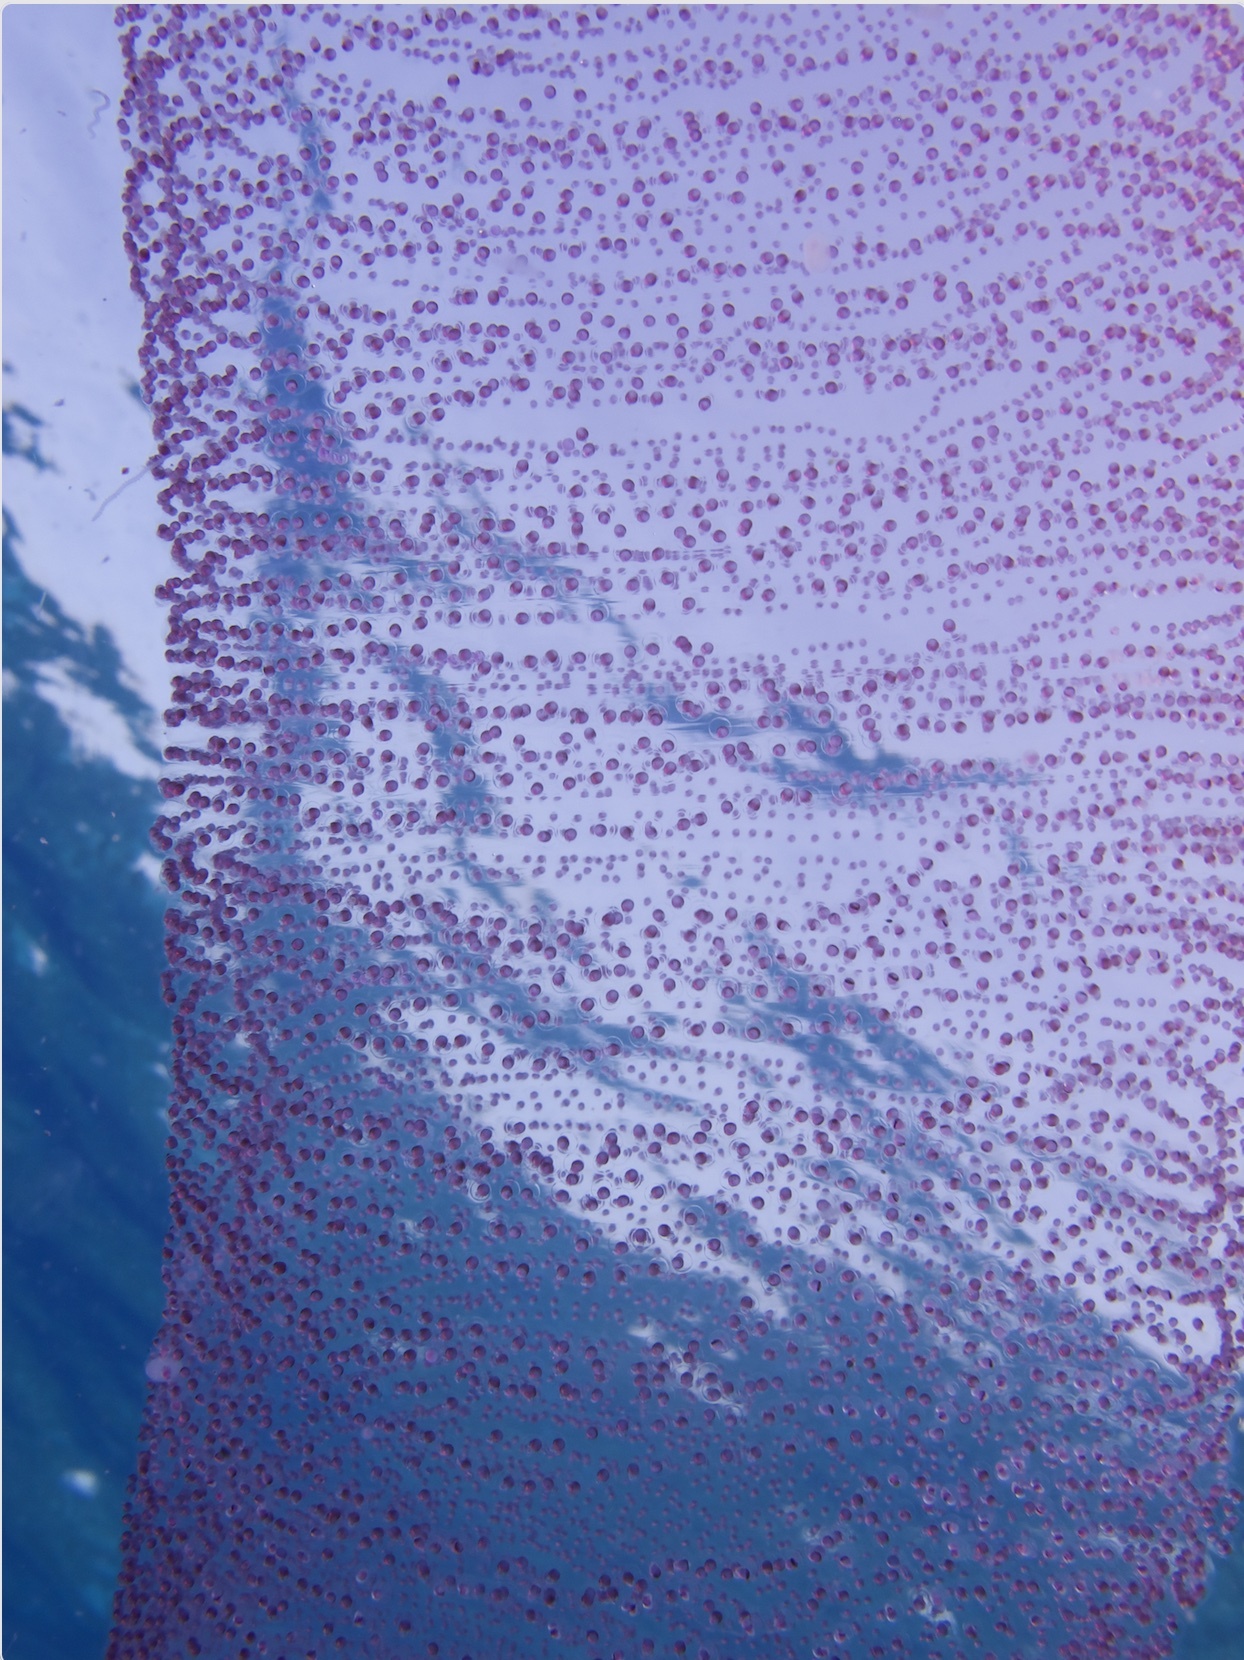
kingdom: Animalia
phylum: Mollusca
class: Cephalopoda
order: Oegopsida
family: Thysanoteuthidae
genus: Thysanoteuthis
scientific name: Thysanoteuthis rhombus
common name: Diamondback squid
